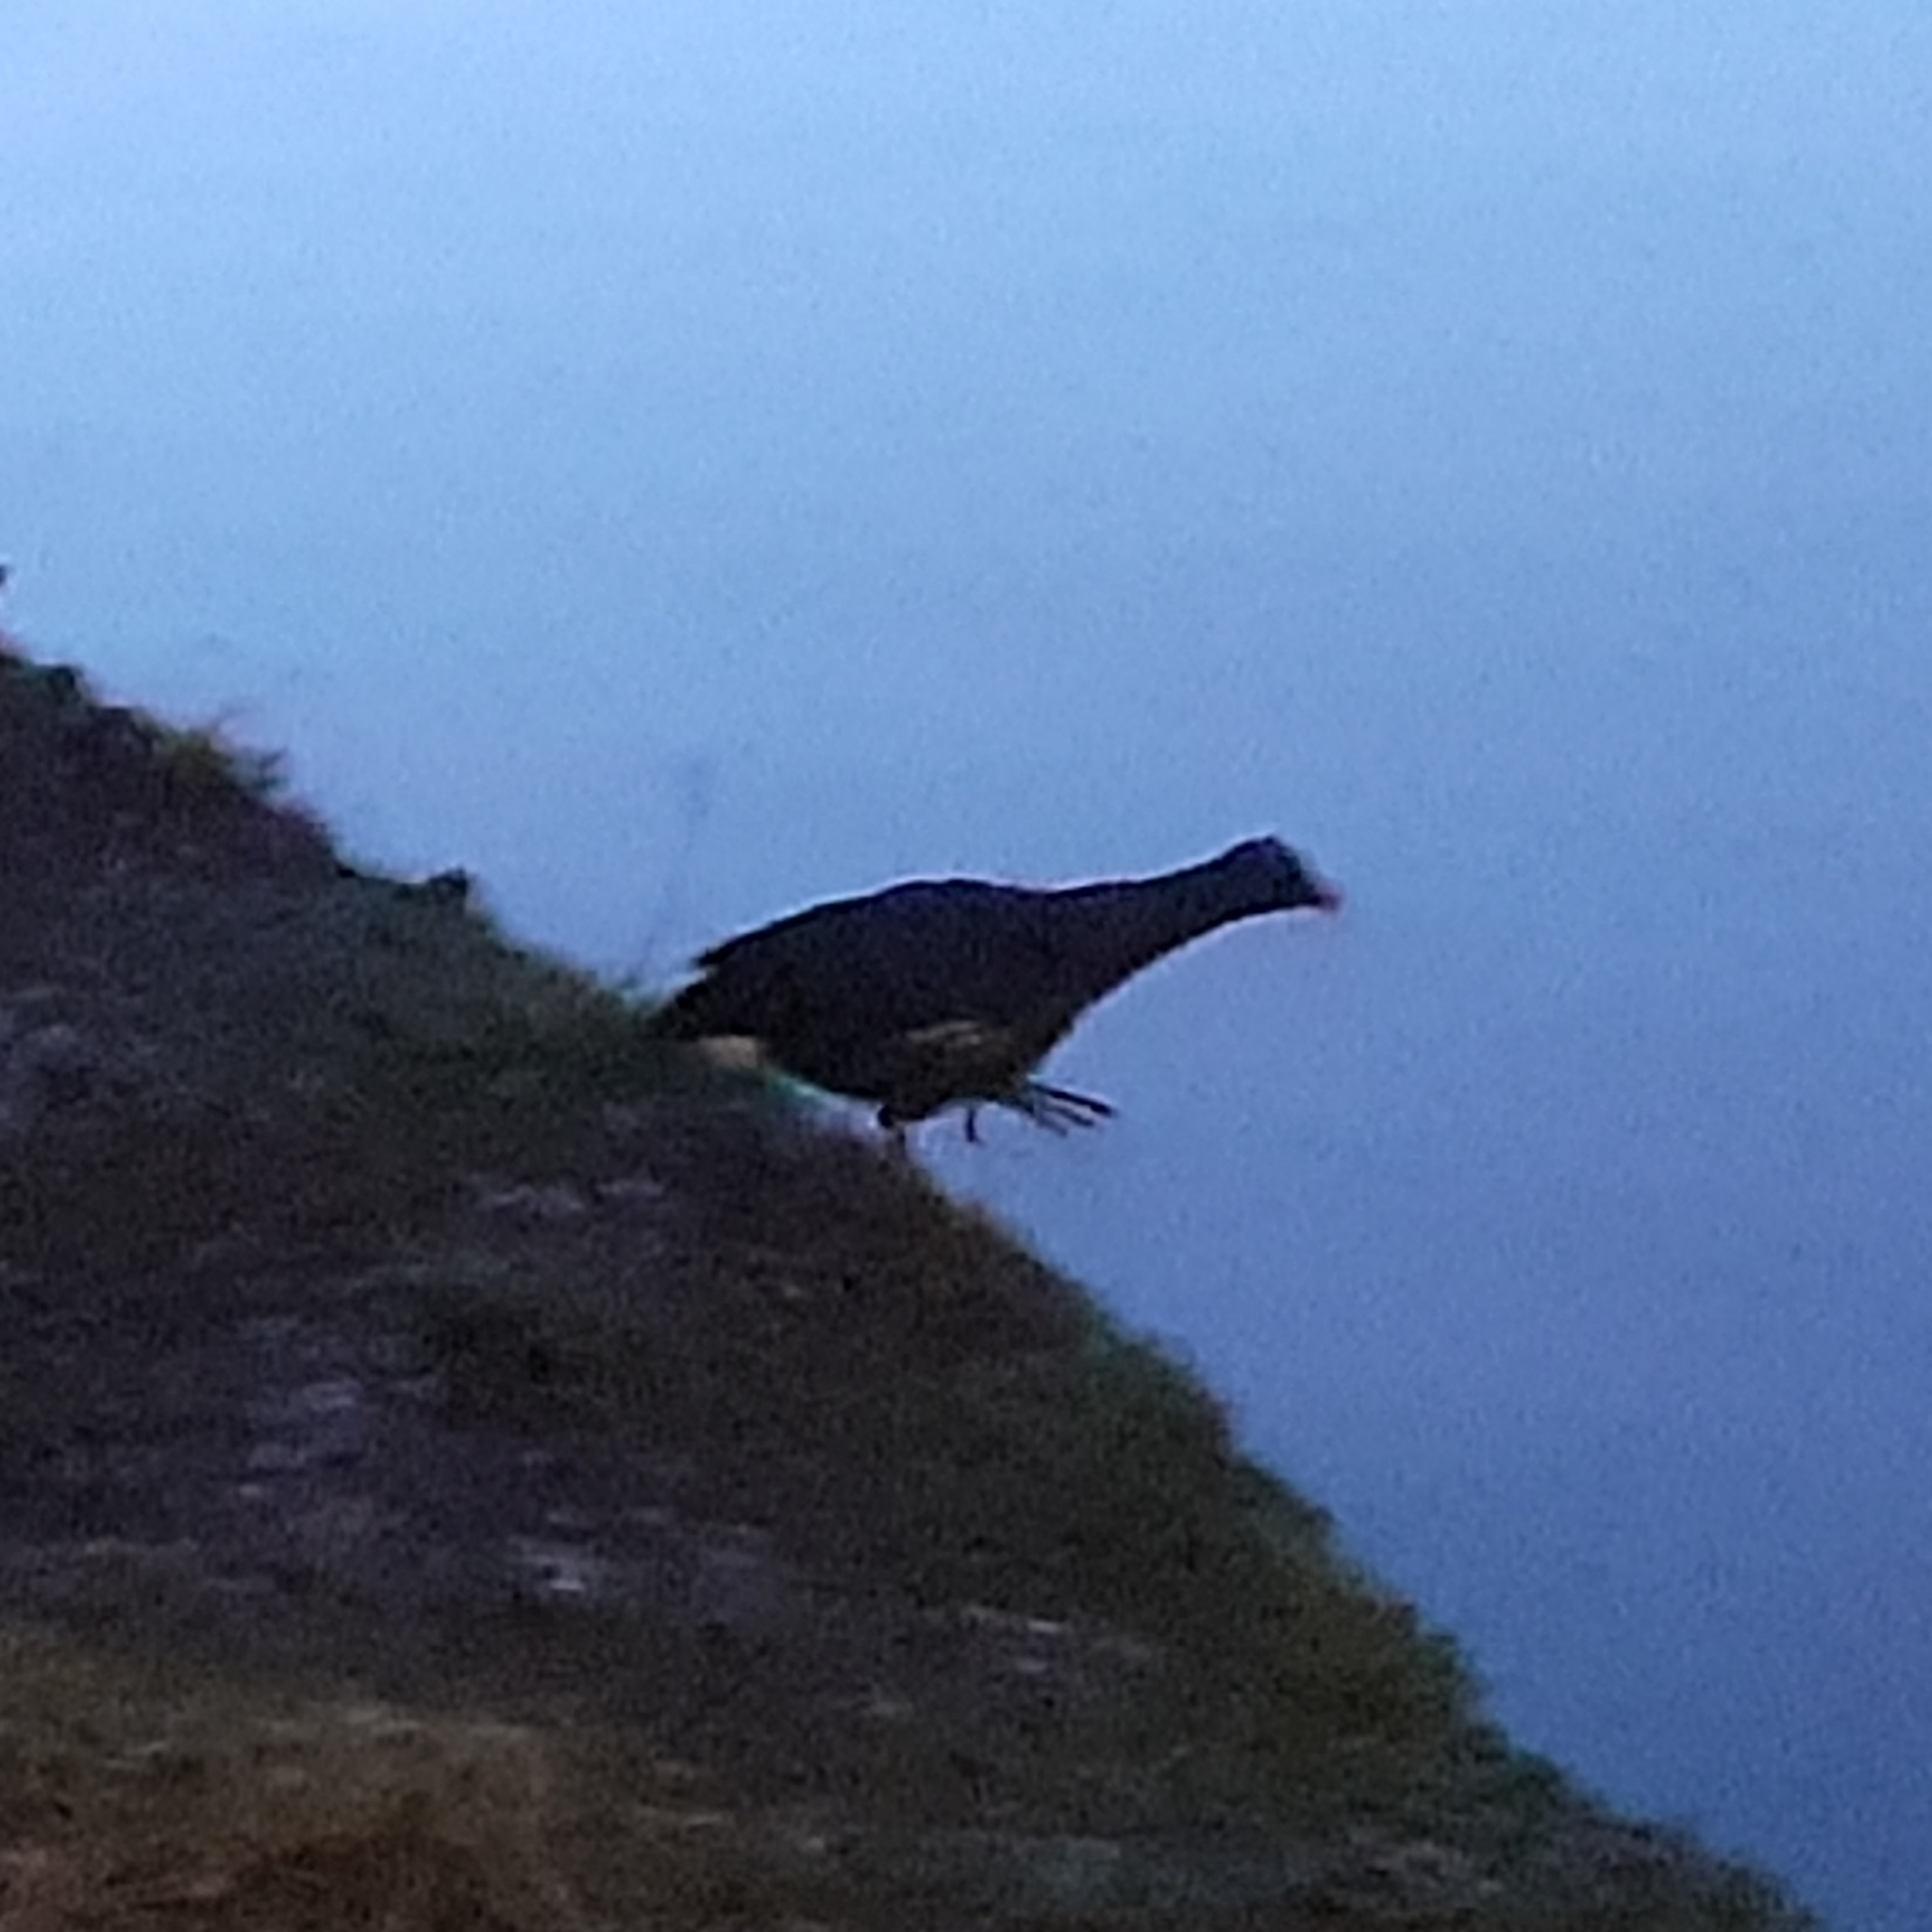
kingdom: Animalia
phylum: Chordata
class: Aves
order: Gruiformes
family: Rallidae
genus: Gallinula
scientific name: Gallinula chloropus
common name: Common moorhen
